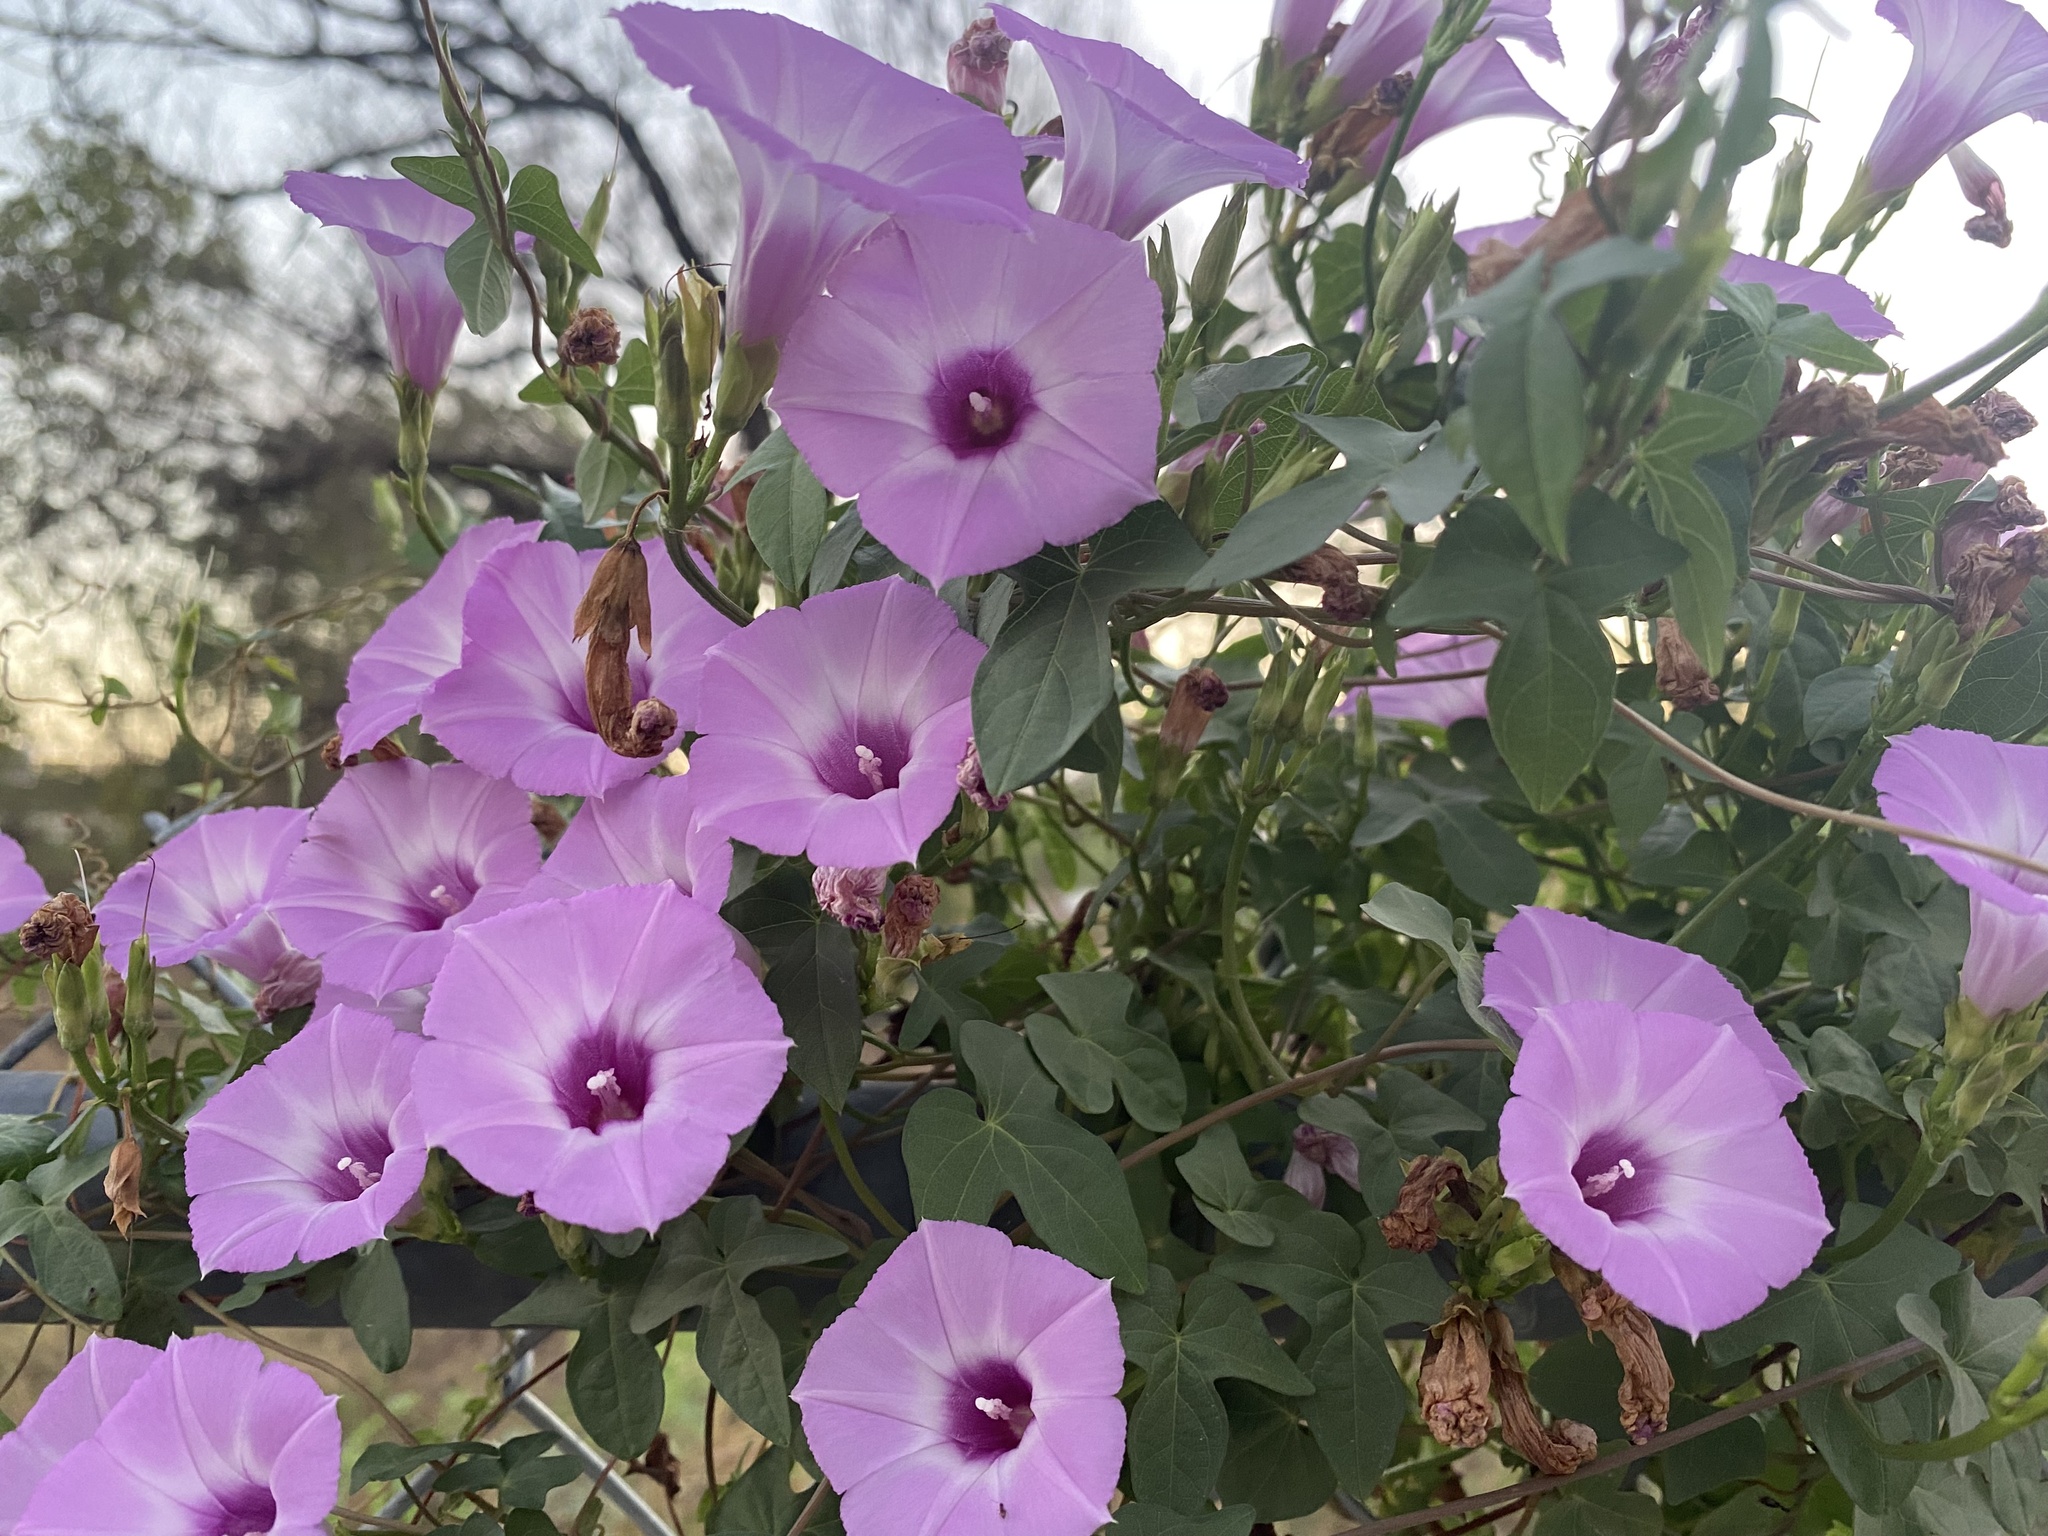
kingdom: Plantae
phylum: Tracheophyta
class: Magnoliopsida
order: Solanales
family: Convolvulaceae
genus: Ipomoea
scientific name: Ipomoea cordatotriloba
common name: Cotton morning glory
